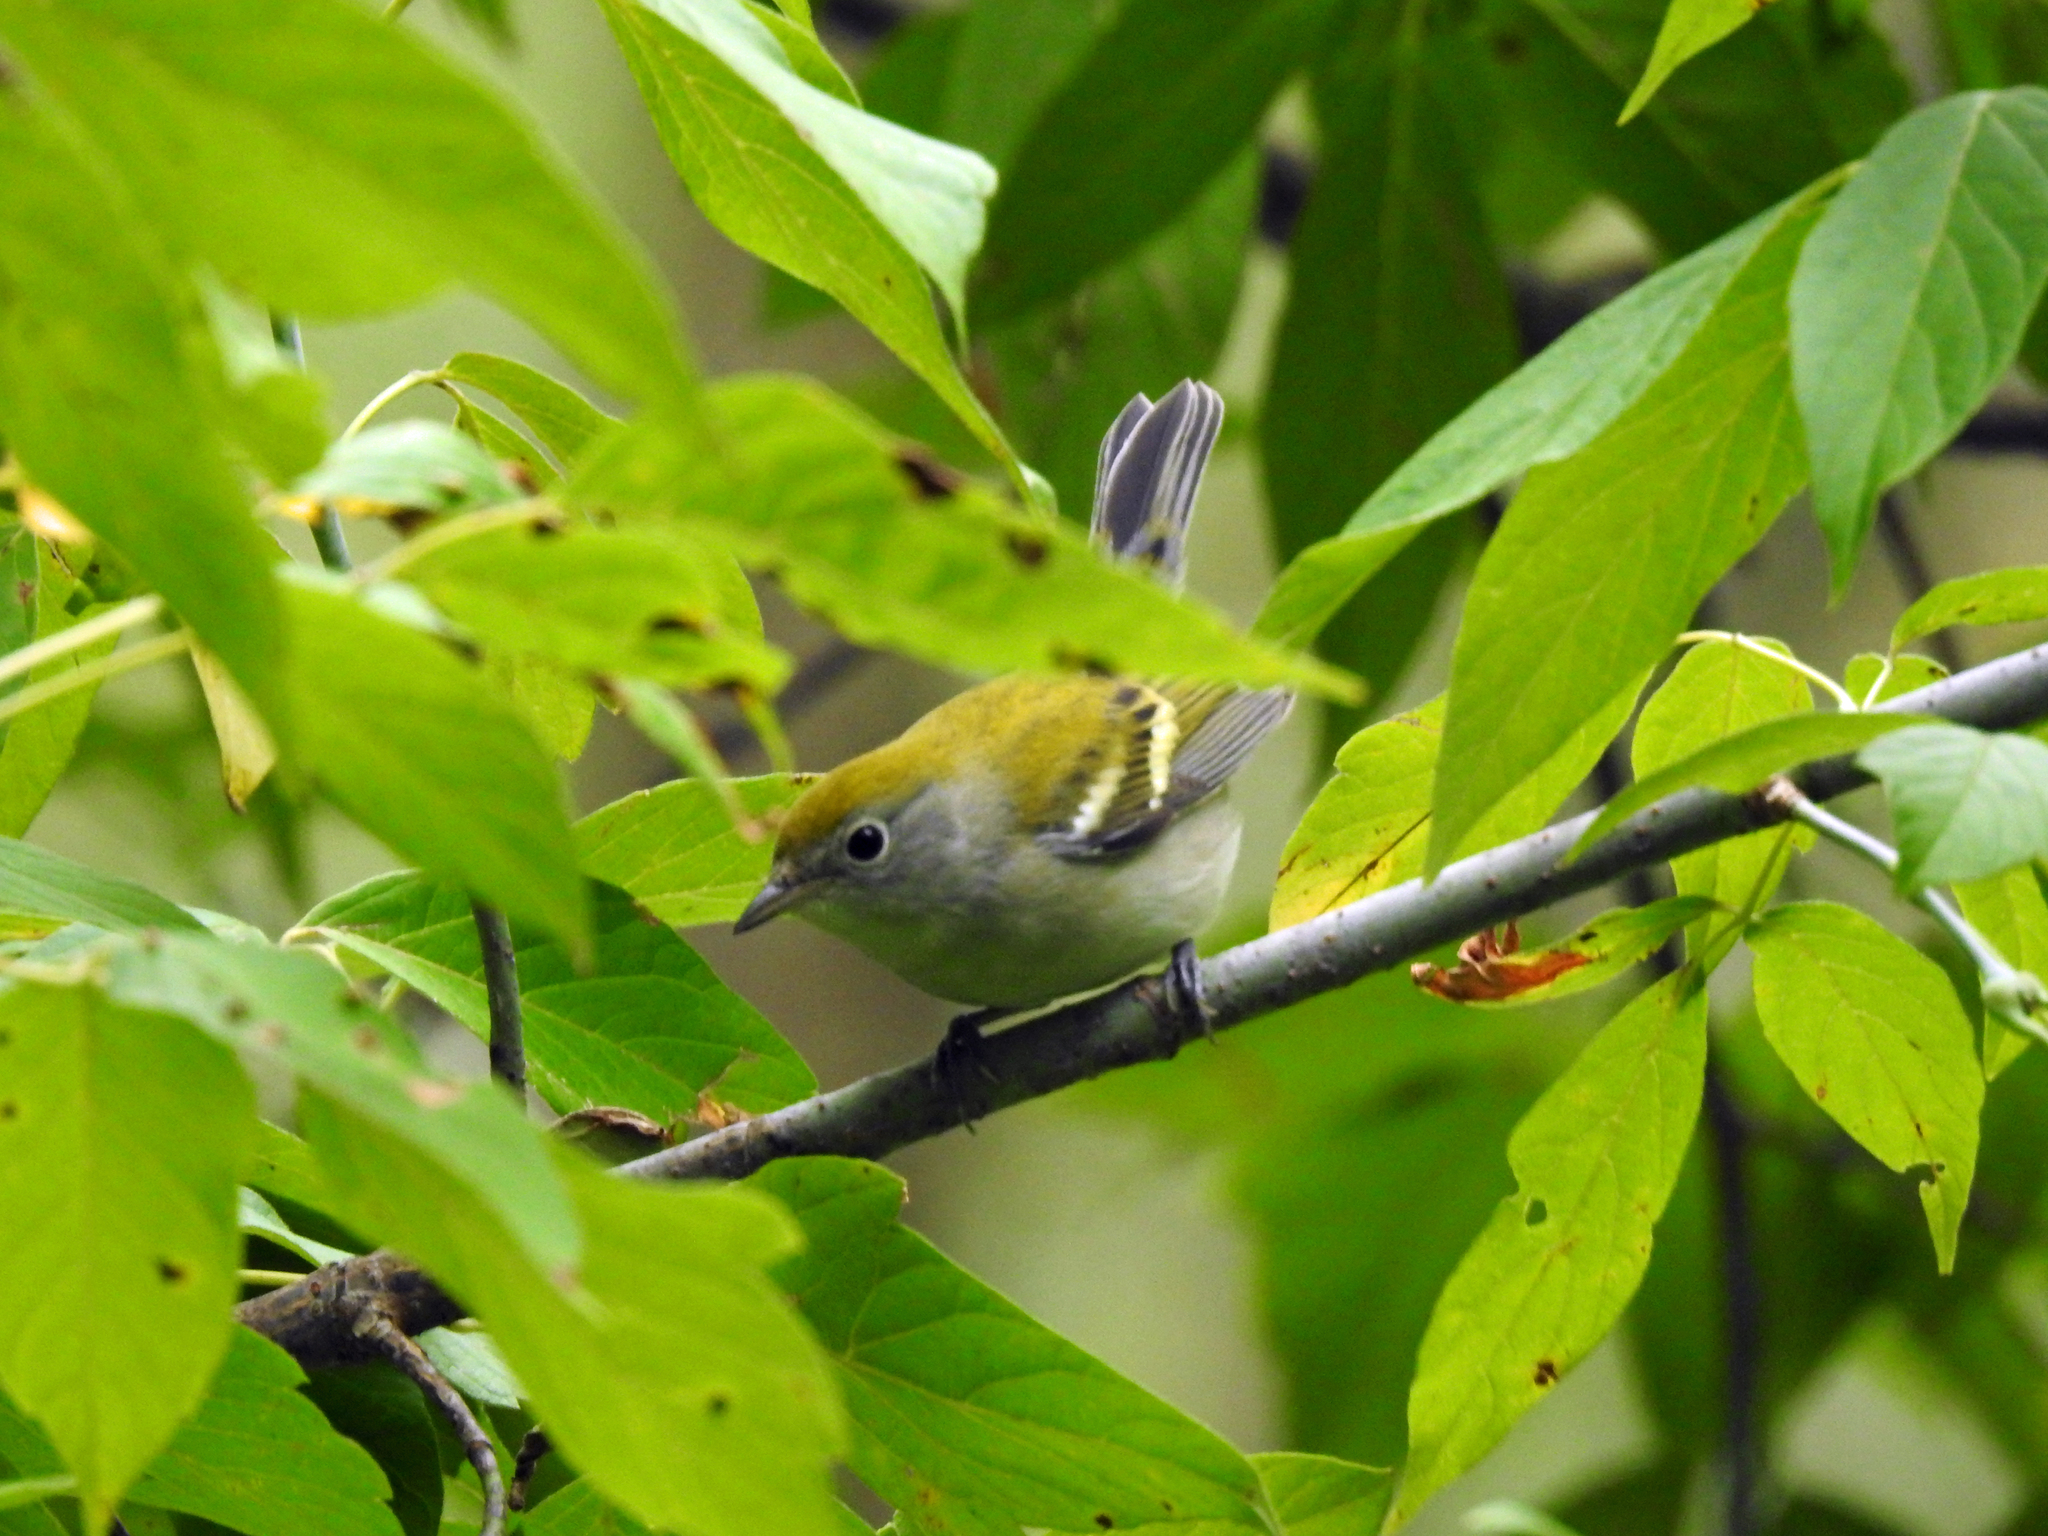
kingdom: Animalia
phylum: Chordata
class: Aves
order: Passeriformes
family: Parulidae
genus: Setophaga
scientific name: Setophaga pensylvanica
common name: Chestnut-sided warbler
